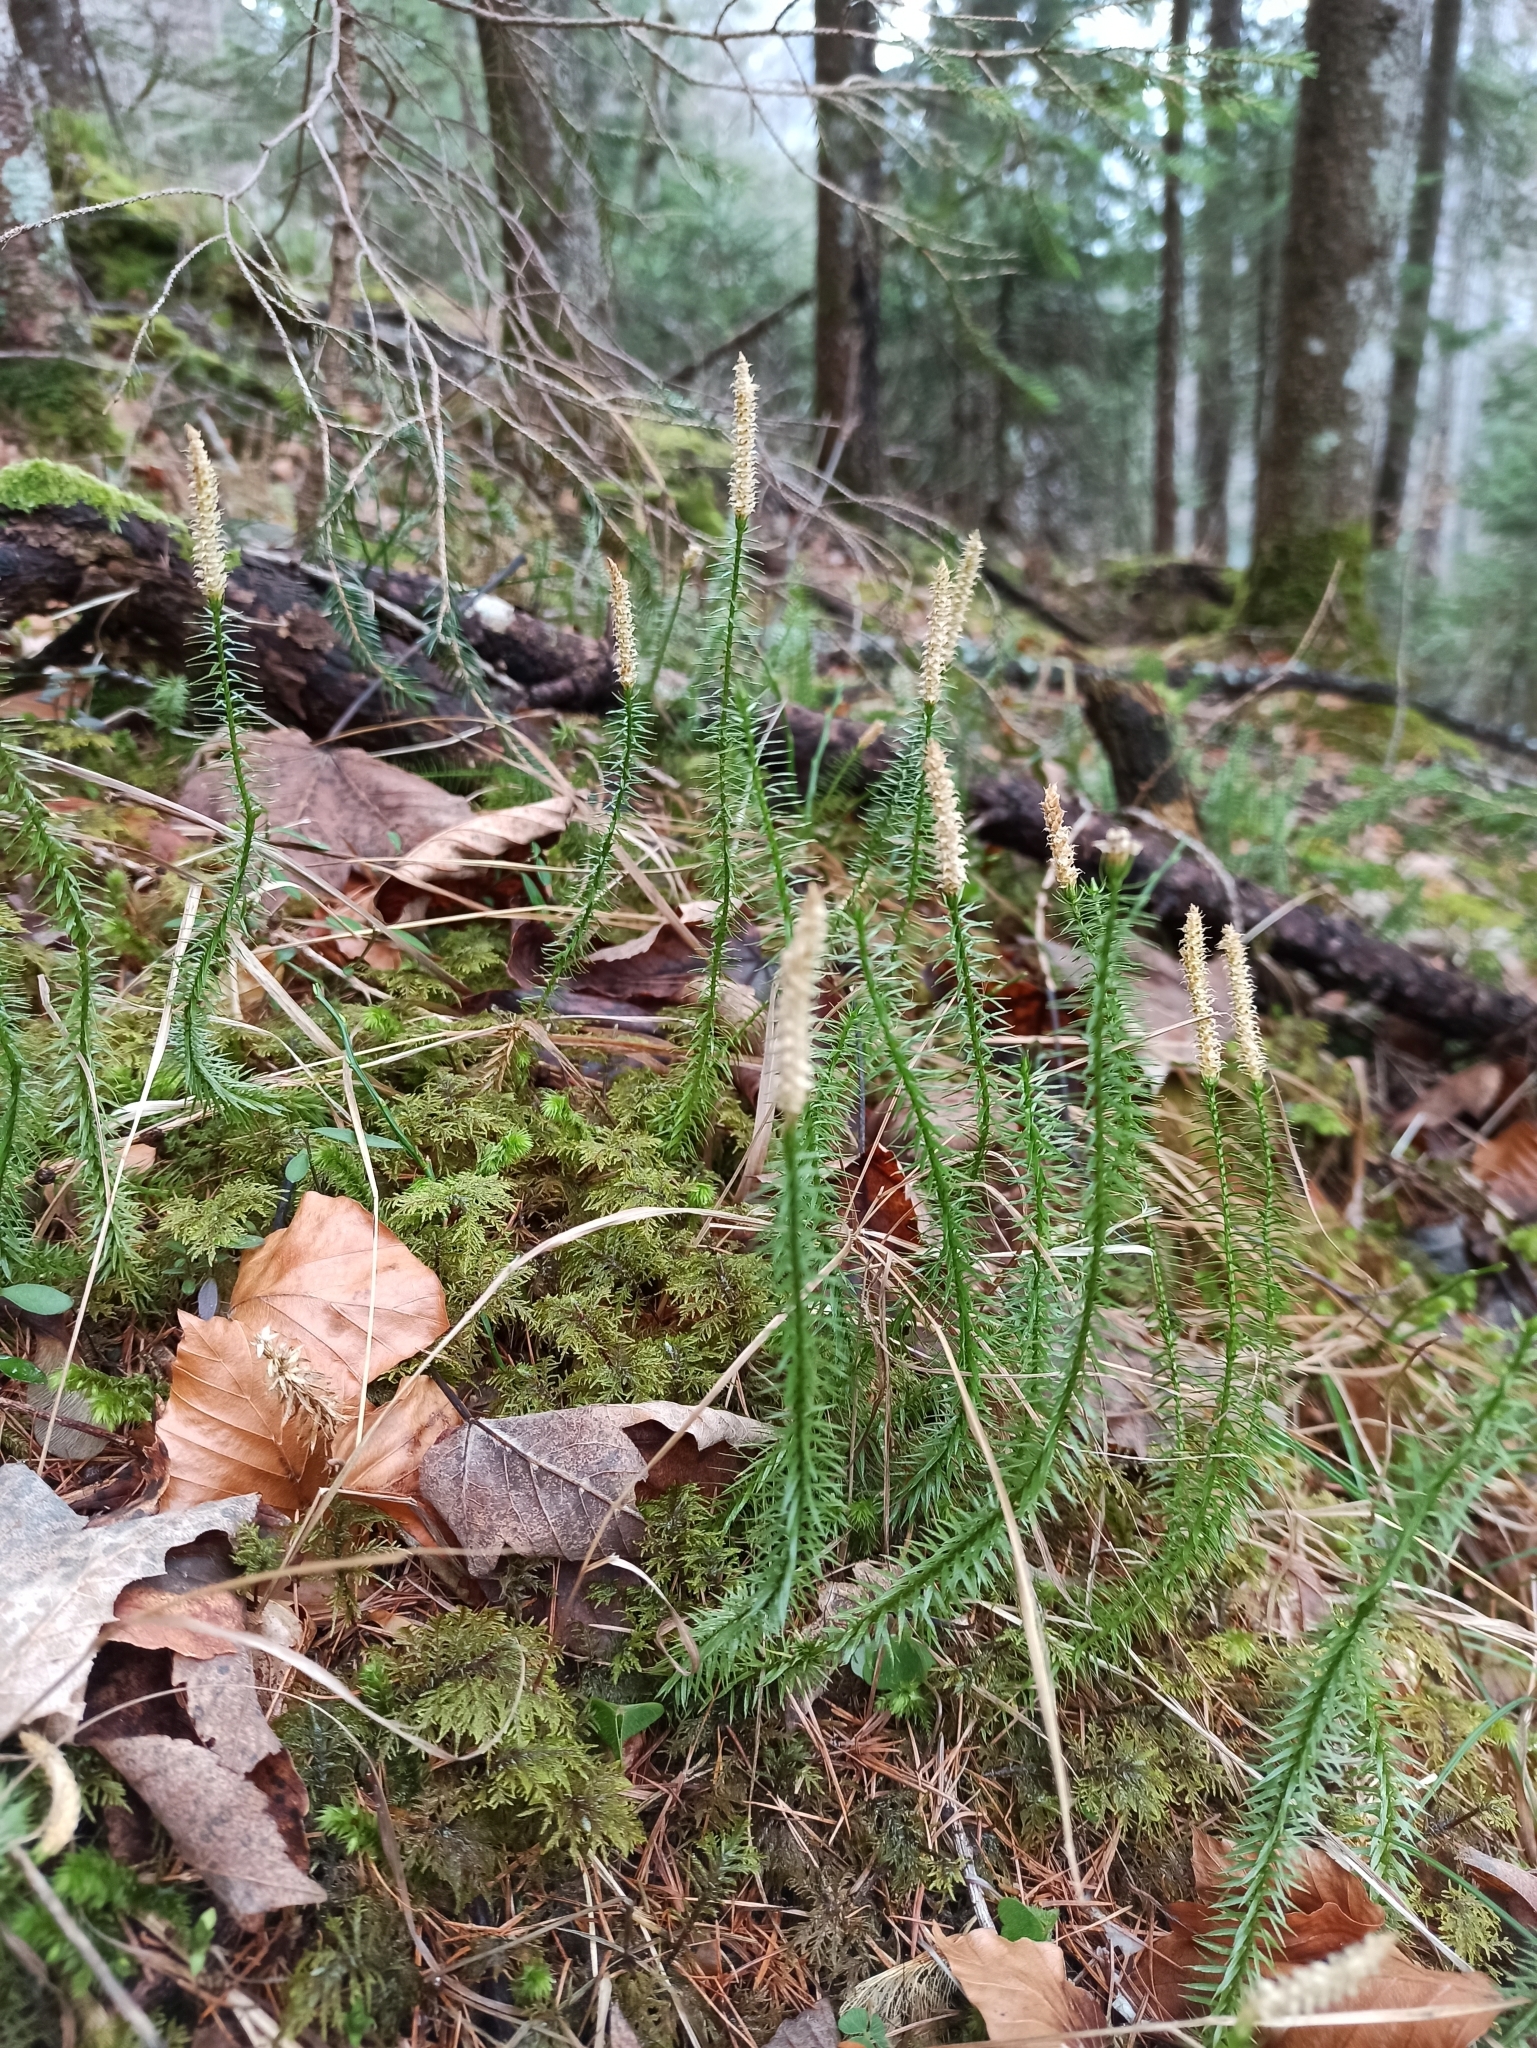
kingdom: Plantae
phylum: Tracheophyta
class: Lycopodiopsida
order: Lycopodiales
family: Lycopodiaceae
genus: Spinulum
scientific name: Spinulum annotinum
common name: Interrupted club-moss
